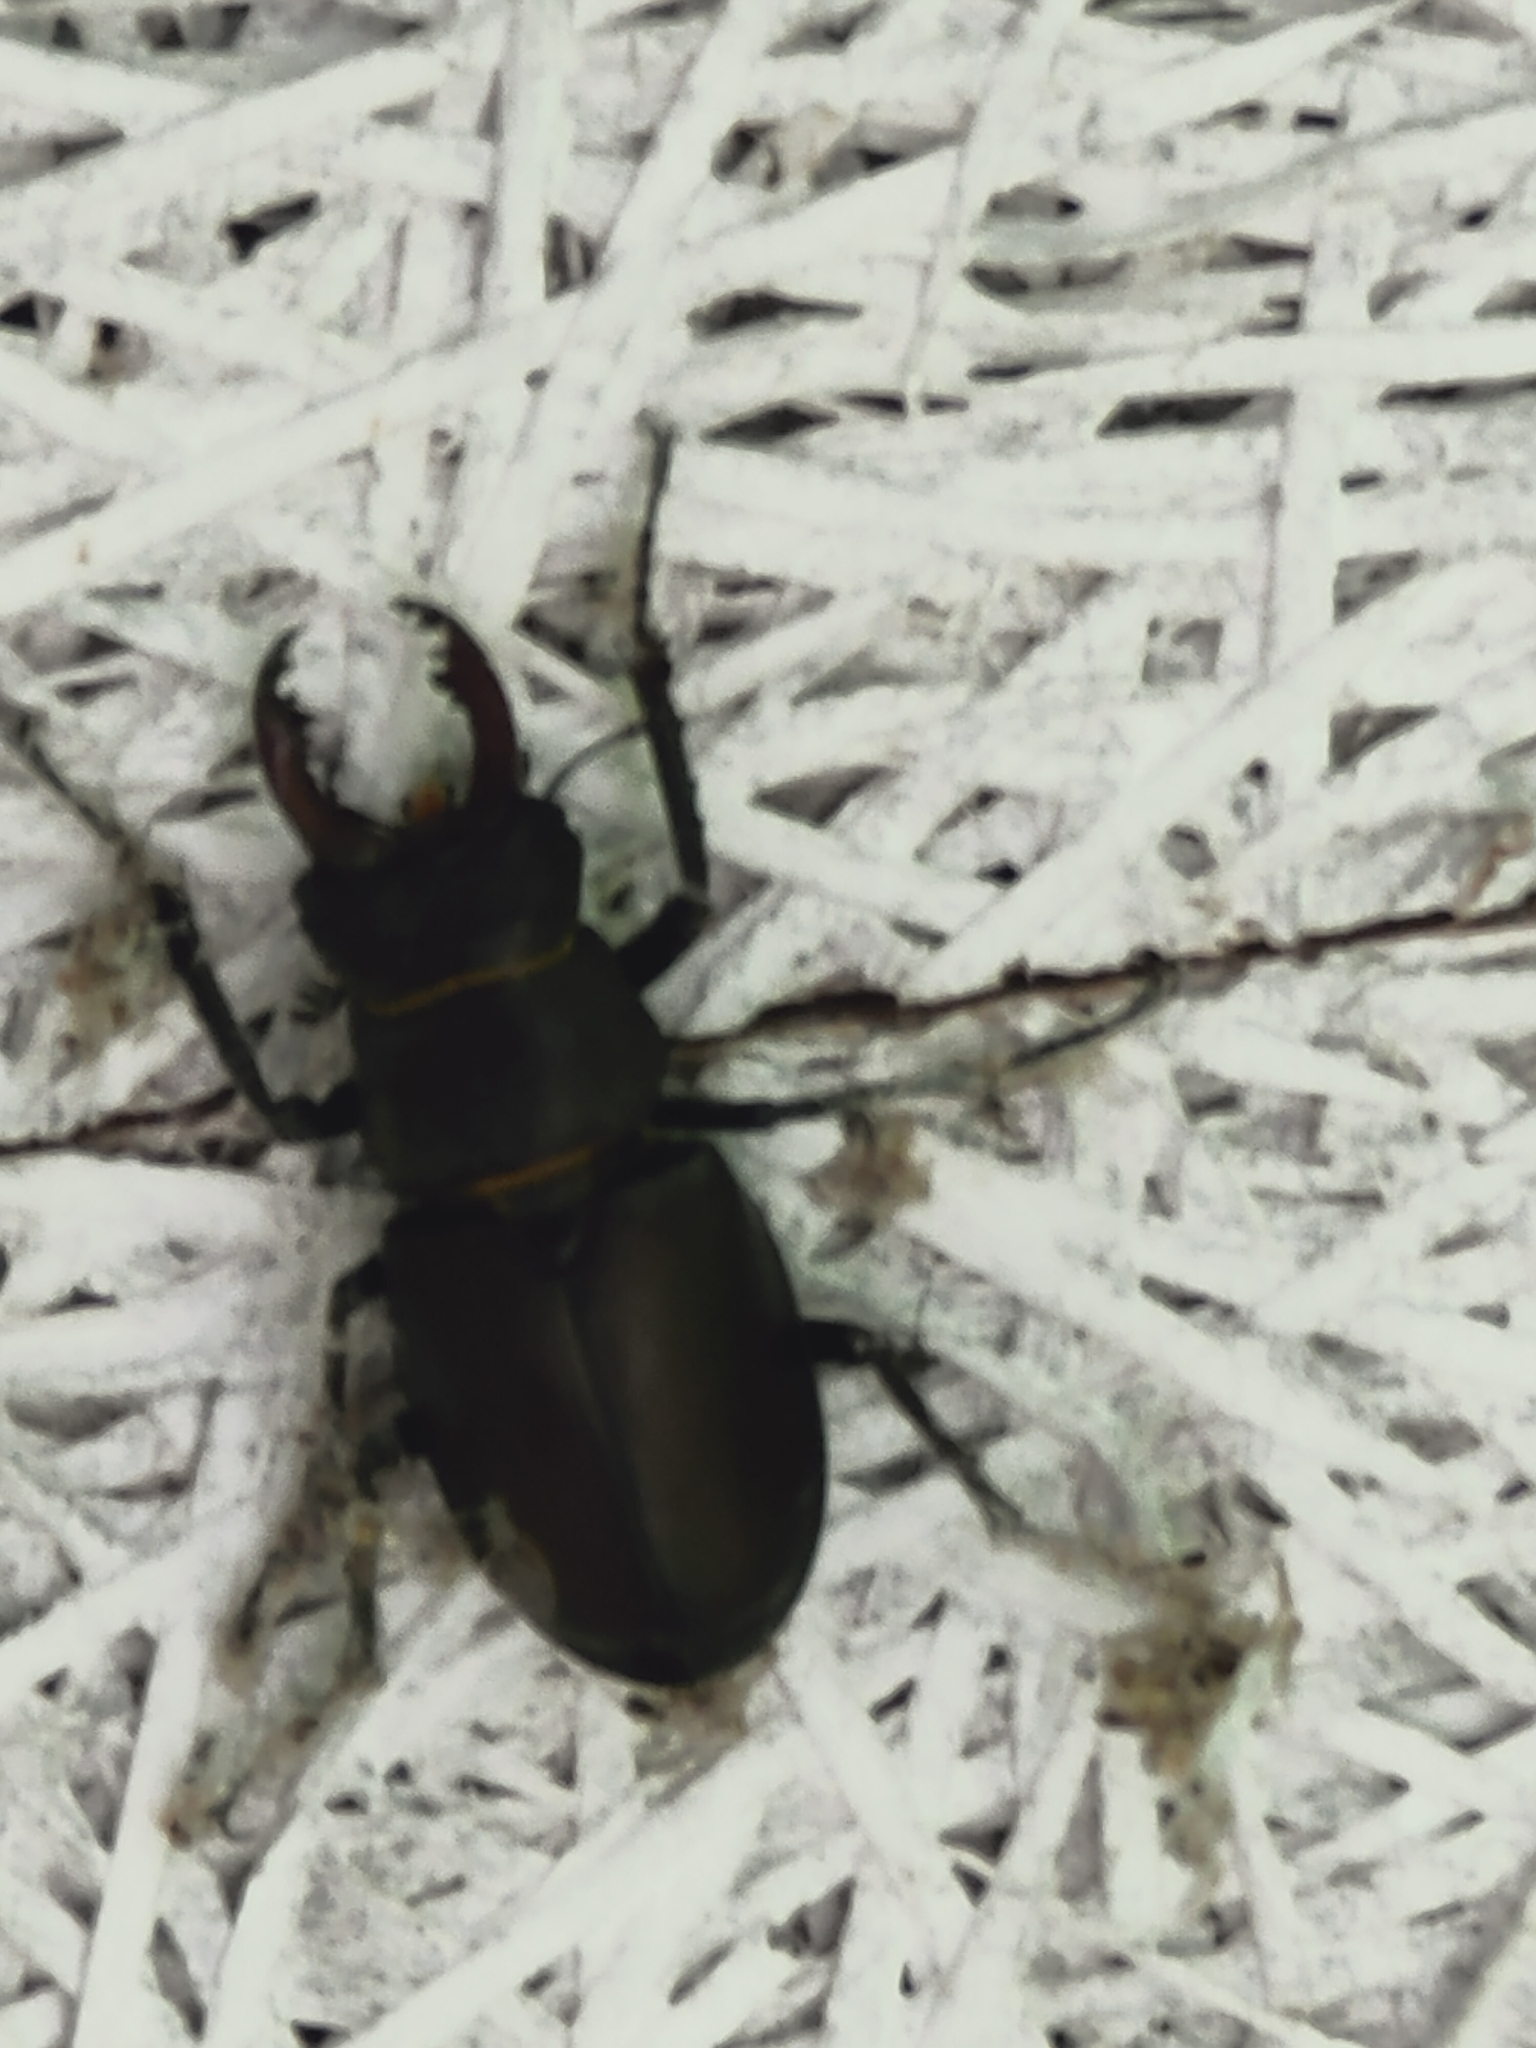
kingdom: Animalia
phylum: Arthropoda
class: Insecta
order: Coleoptera
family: Lucanidae
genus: Lucanus
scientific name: Lucanus cervus
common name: Stag beetle
